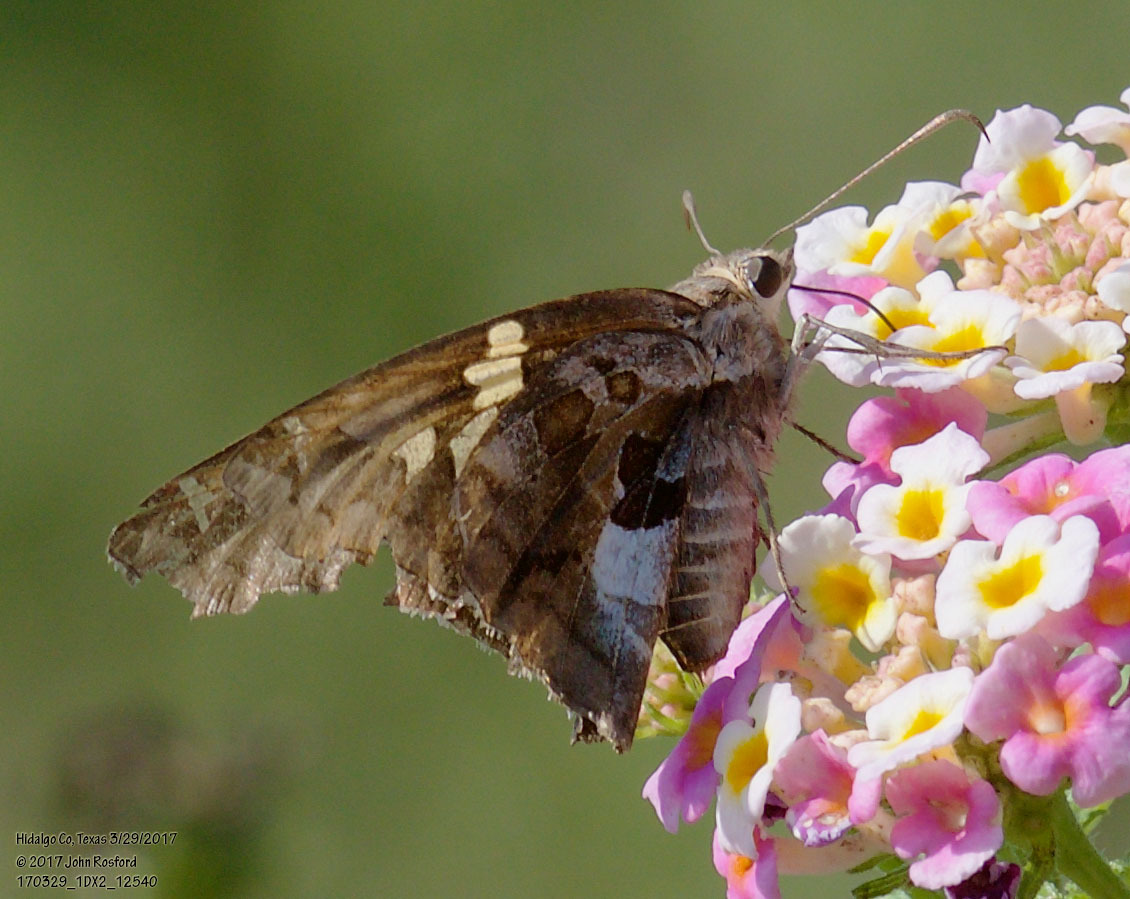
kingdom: Animalia
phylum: Arthropoda
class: Insecta
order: Lepidoptera
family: Hesperiidae
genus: Chioides
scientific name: Chioides zilpa
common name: Zilpa longtail
